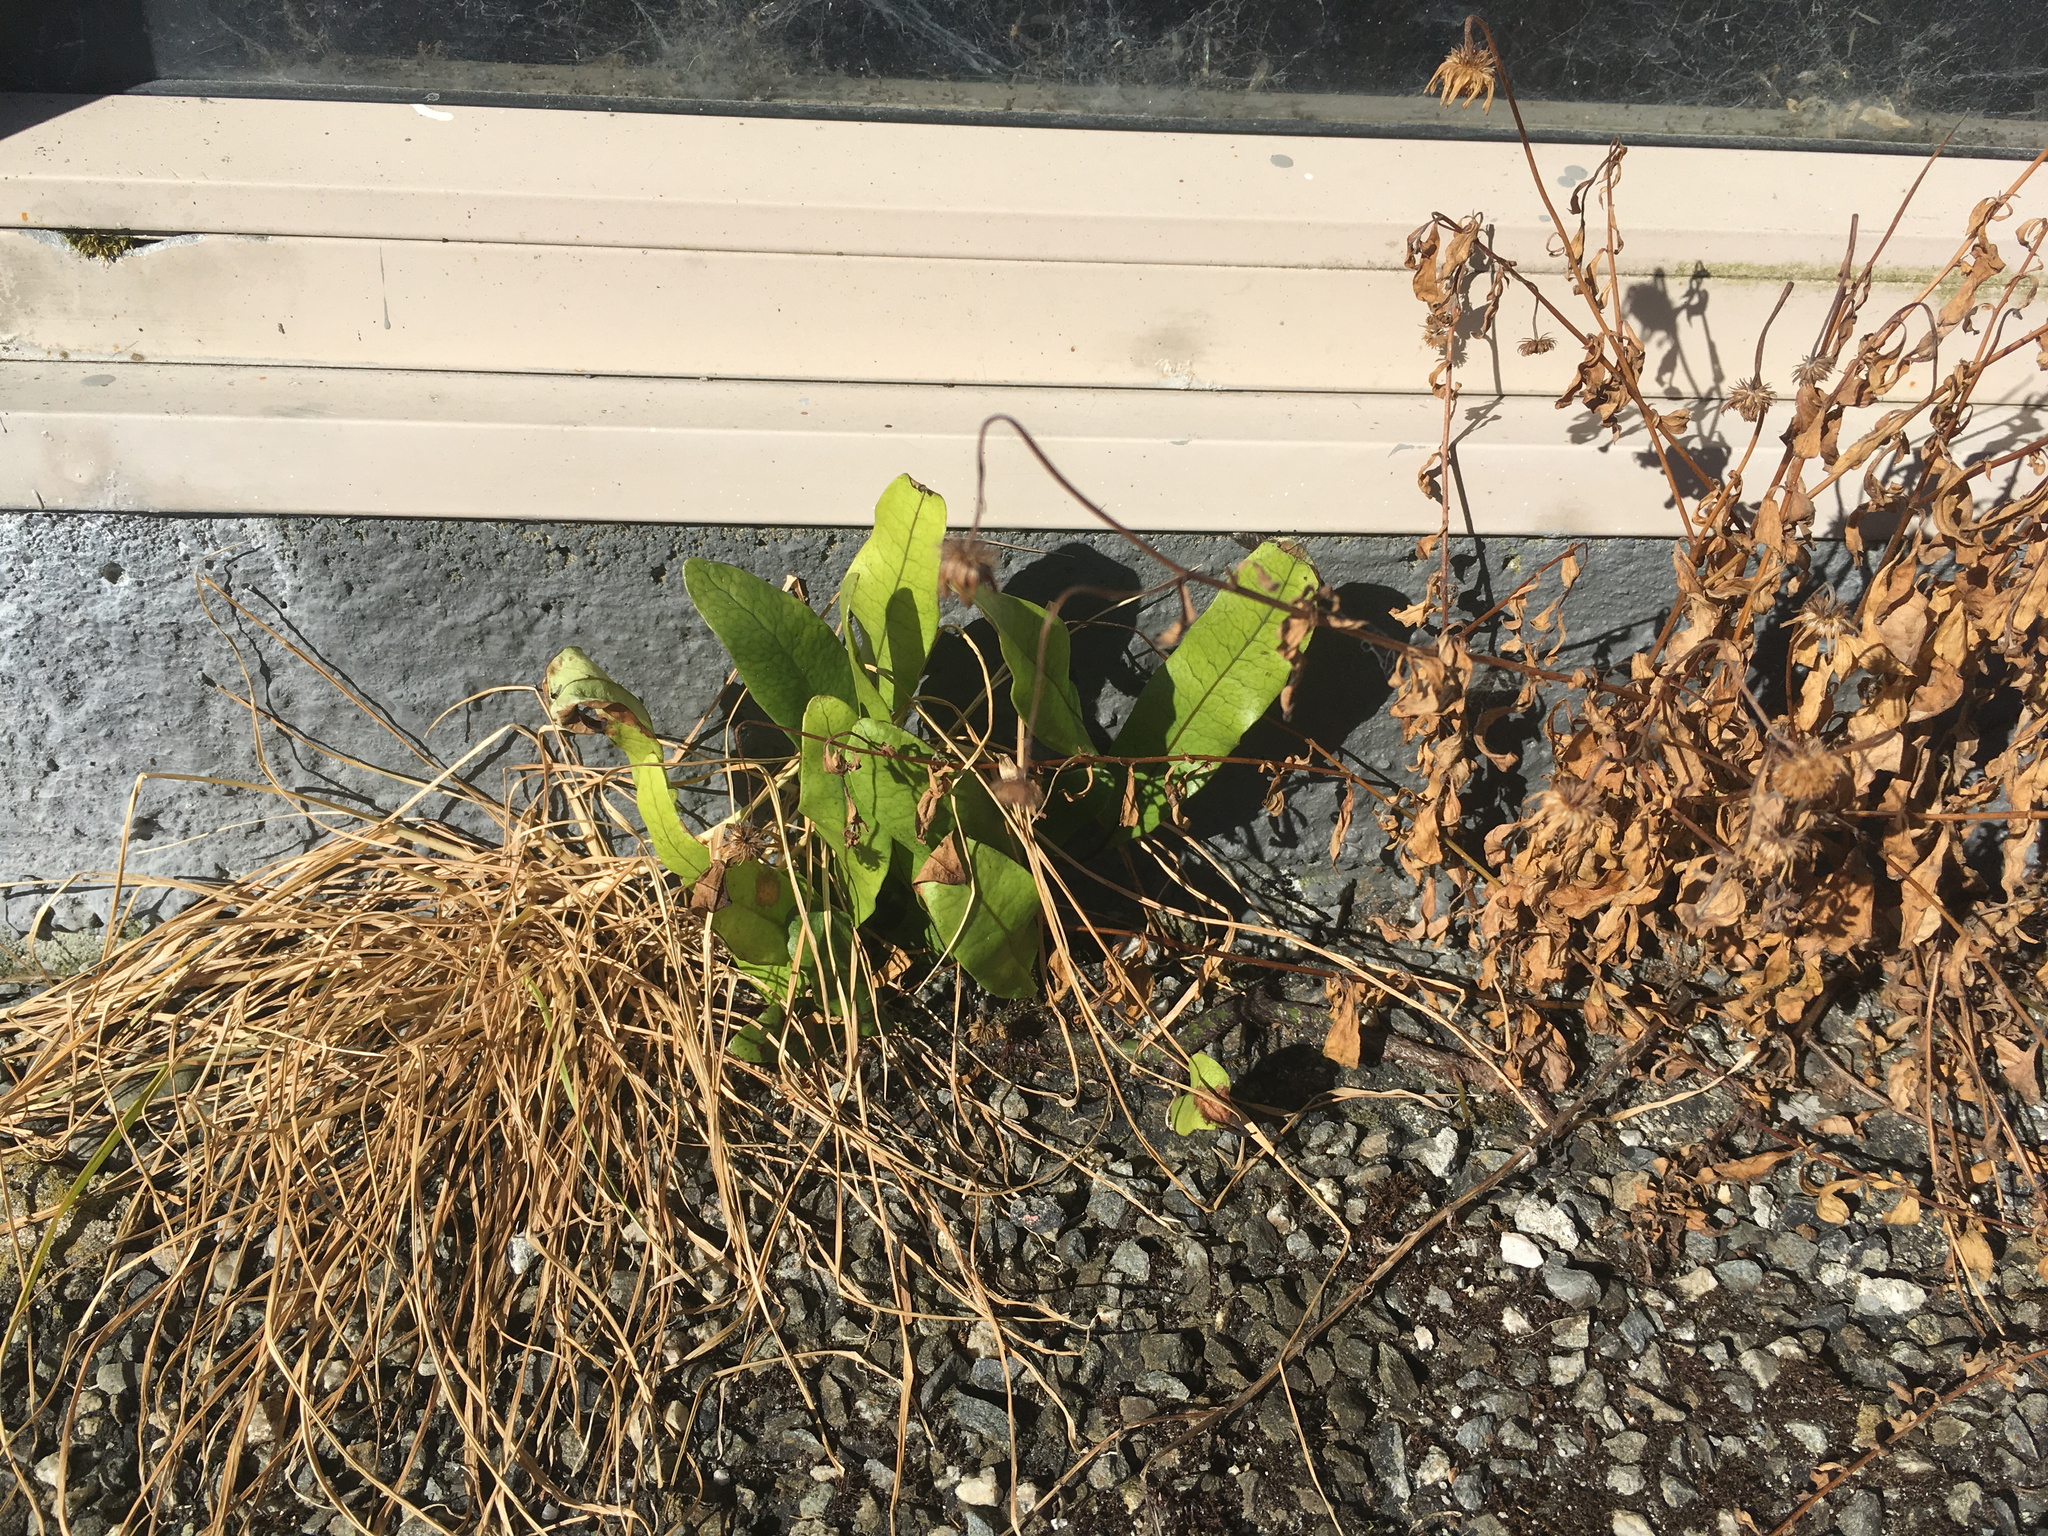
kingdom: Plantae
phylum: Tracheophyta
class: Polypodiopsida
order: Polypodiales
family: Polypodiaceae
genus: Lecanopteris
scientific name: Lecanopteris pustulata
